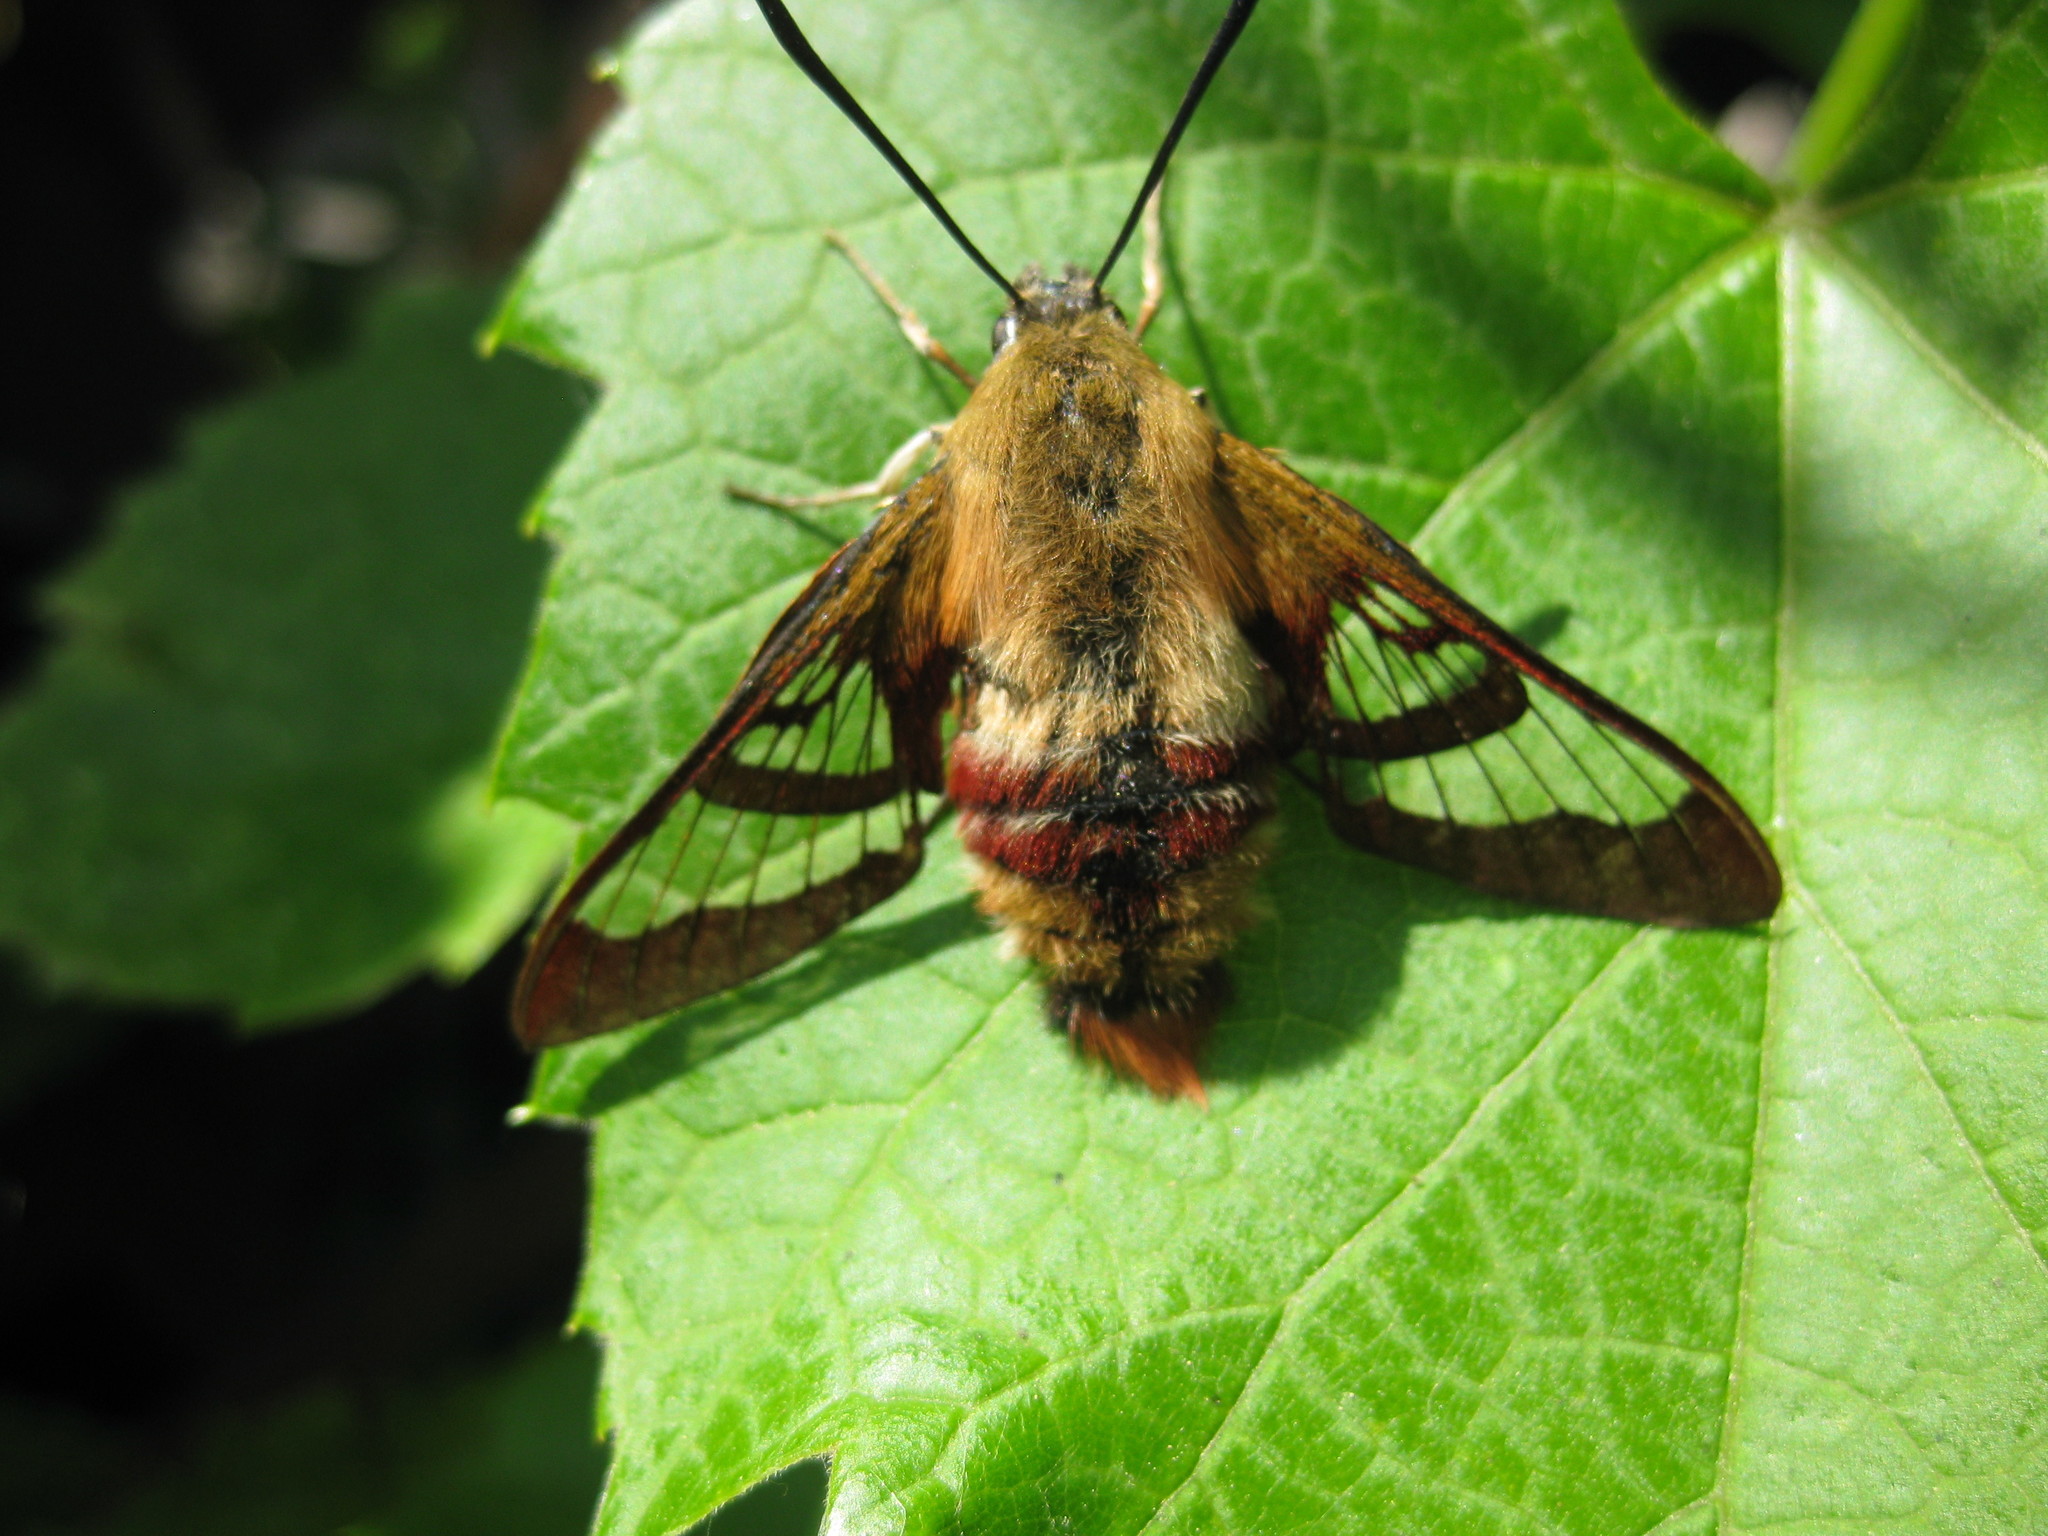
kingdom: Animalia
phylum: Arthropoda
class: Insecta
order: Lepidoptera
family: Sphingidae
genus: Hemaris
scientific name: Hemaris thysbe
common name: Common clear-wing
